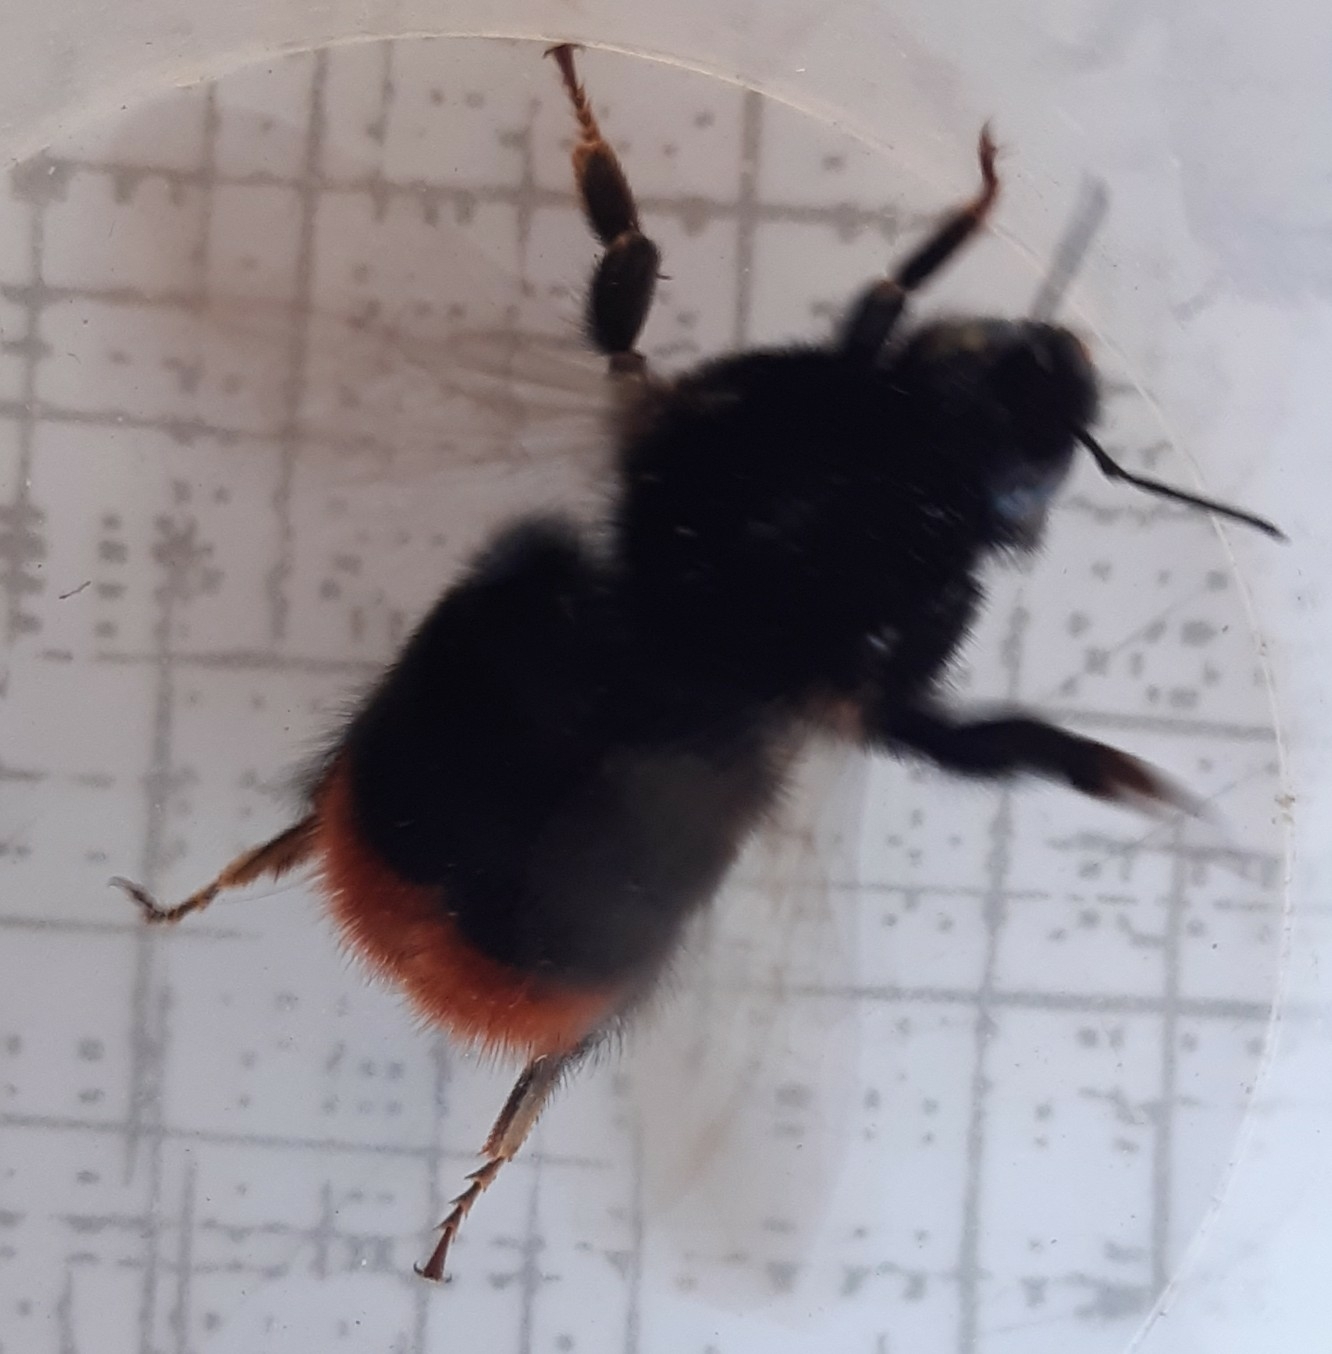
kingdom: Animalia
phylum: Arthropoda
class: Insecta
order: Hymenoptera
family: Apidae
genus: Bombus
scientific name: Bombus lapidarius
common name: Large red-tailed humble-bee
